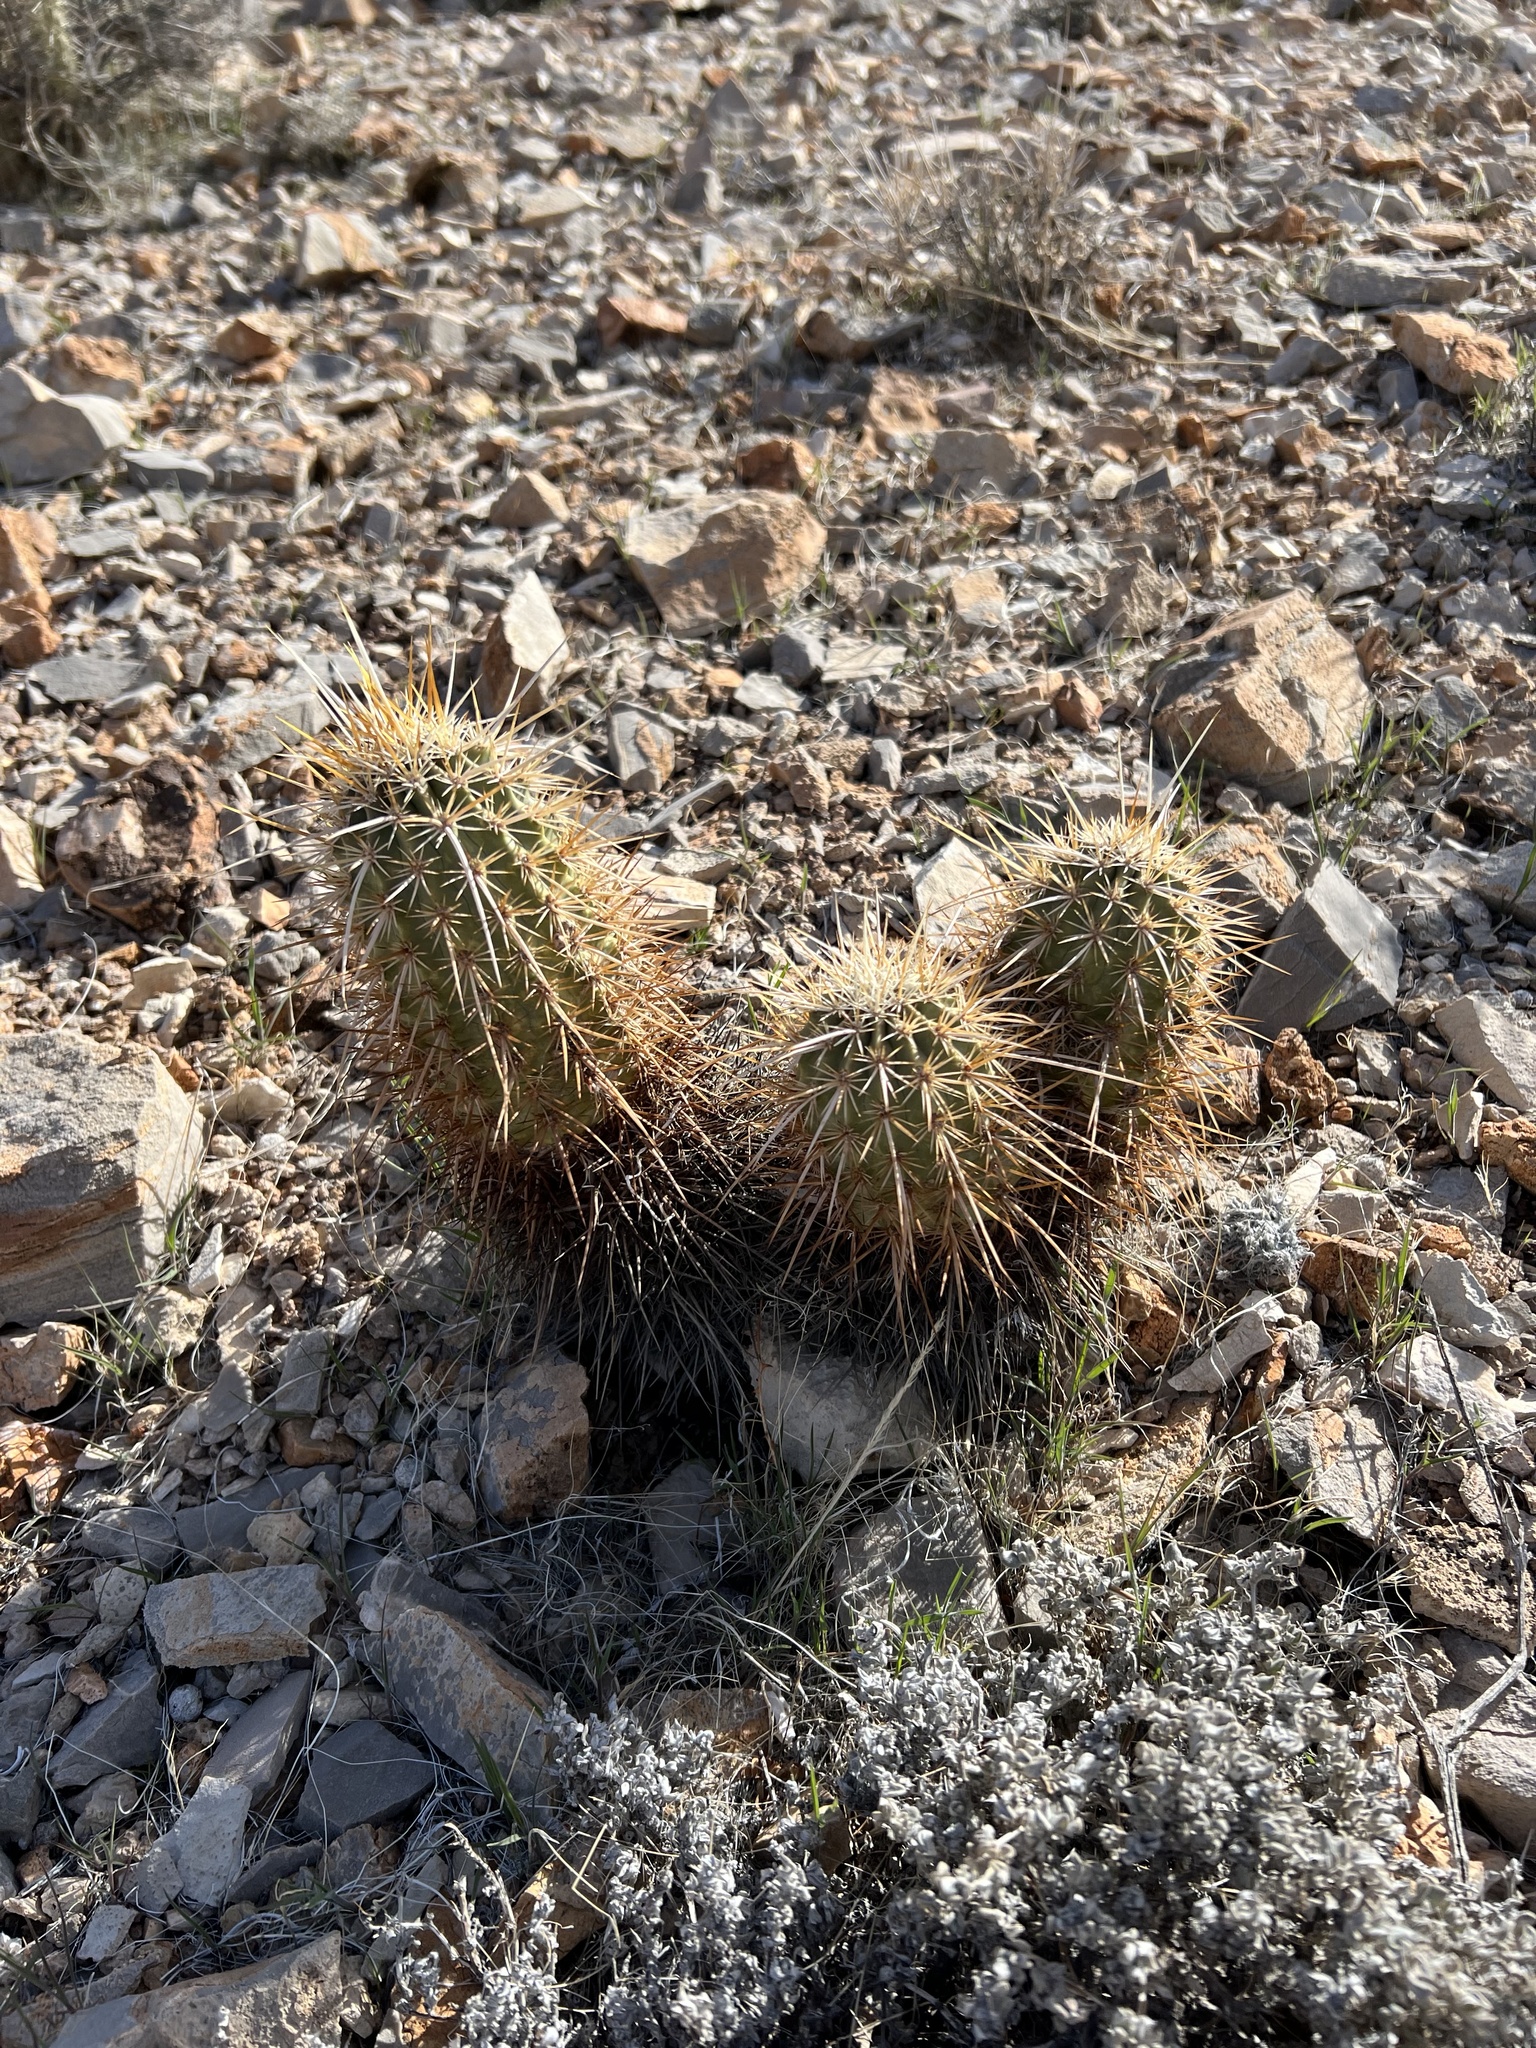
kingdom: Plantae
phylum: Tracheophyta
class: Magnoliopsida
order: Caryophyllales
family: Cactaceae
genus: Echinocereus
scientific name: Echinocereus engelmannii
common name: Engelmann's hedgehog cactus
